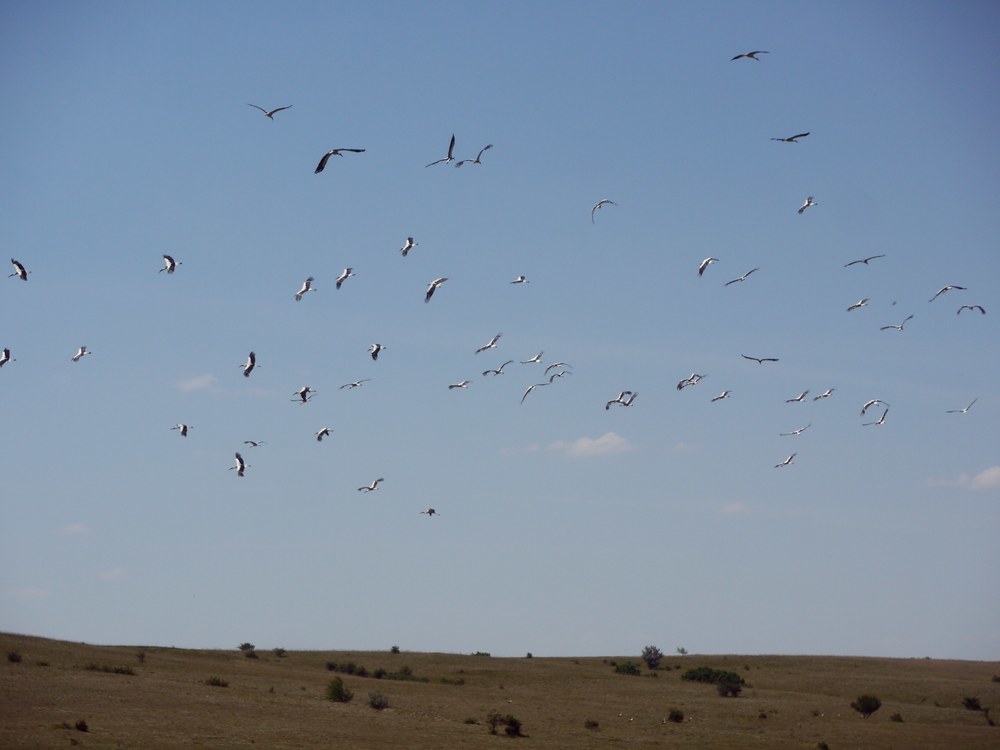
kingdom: Animalia
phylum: Chordata
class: Aves
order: Ciconiiformes
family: Ciconiidae
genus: Ciconia
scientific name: Ciconia ciconia
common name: White stork
